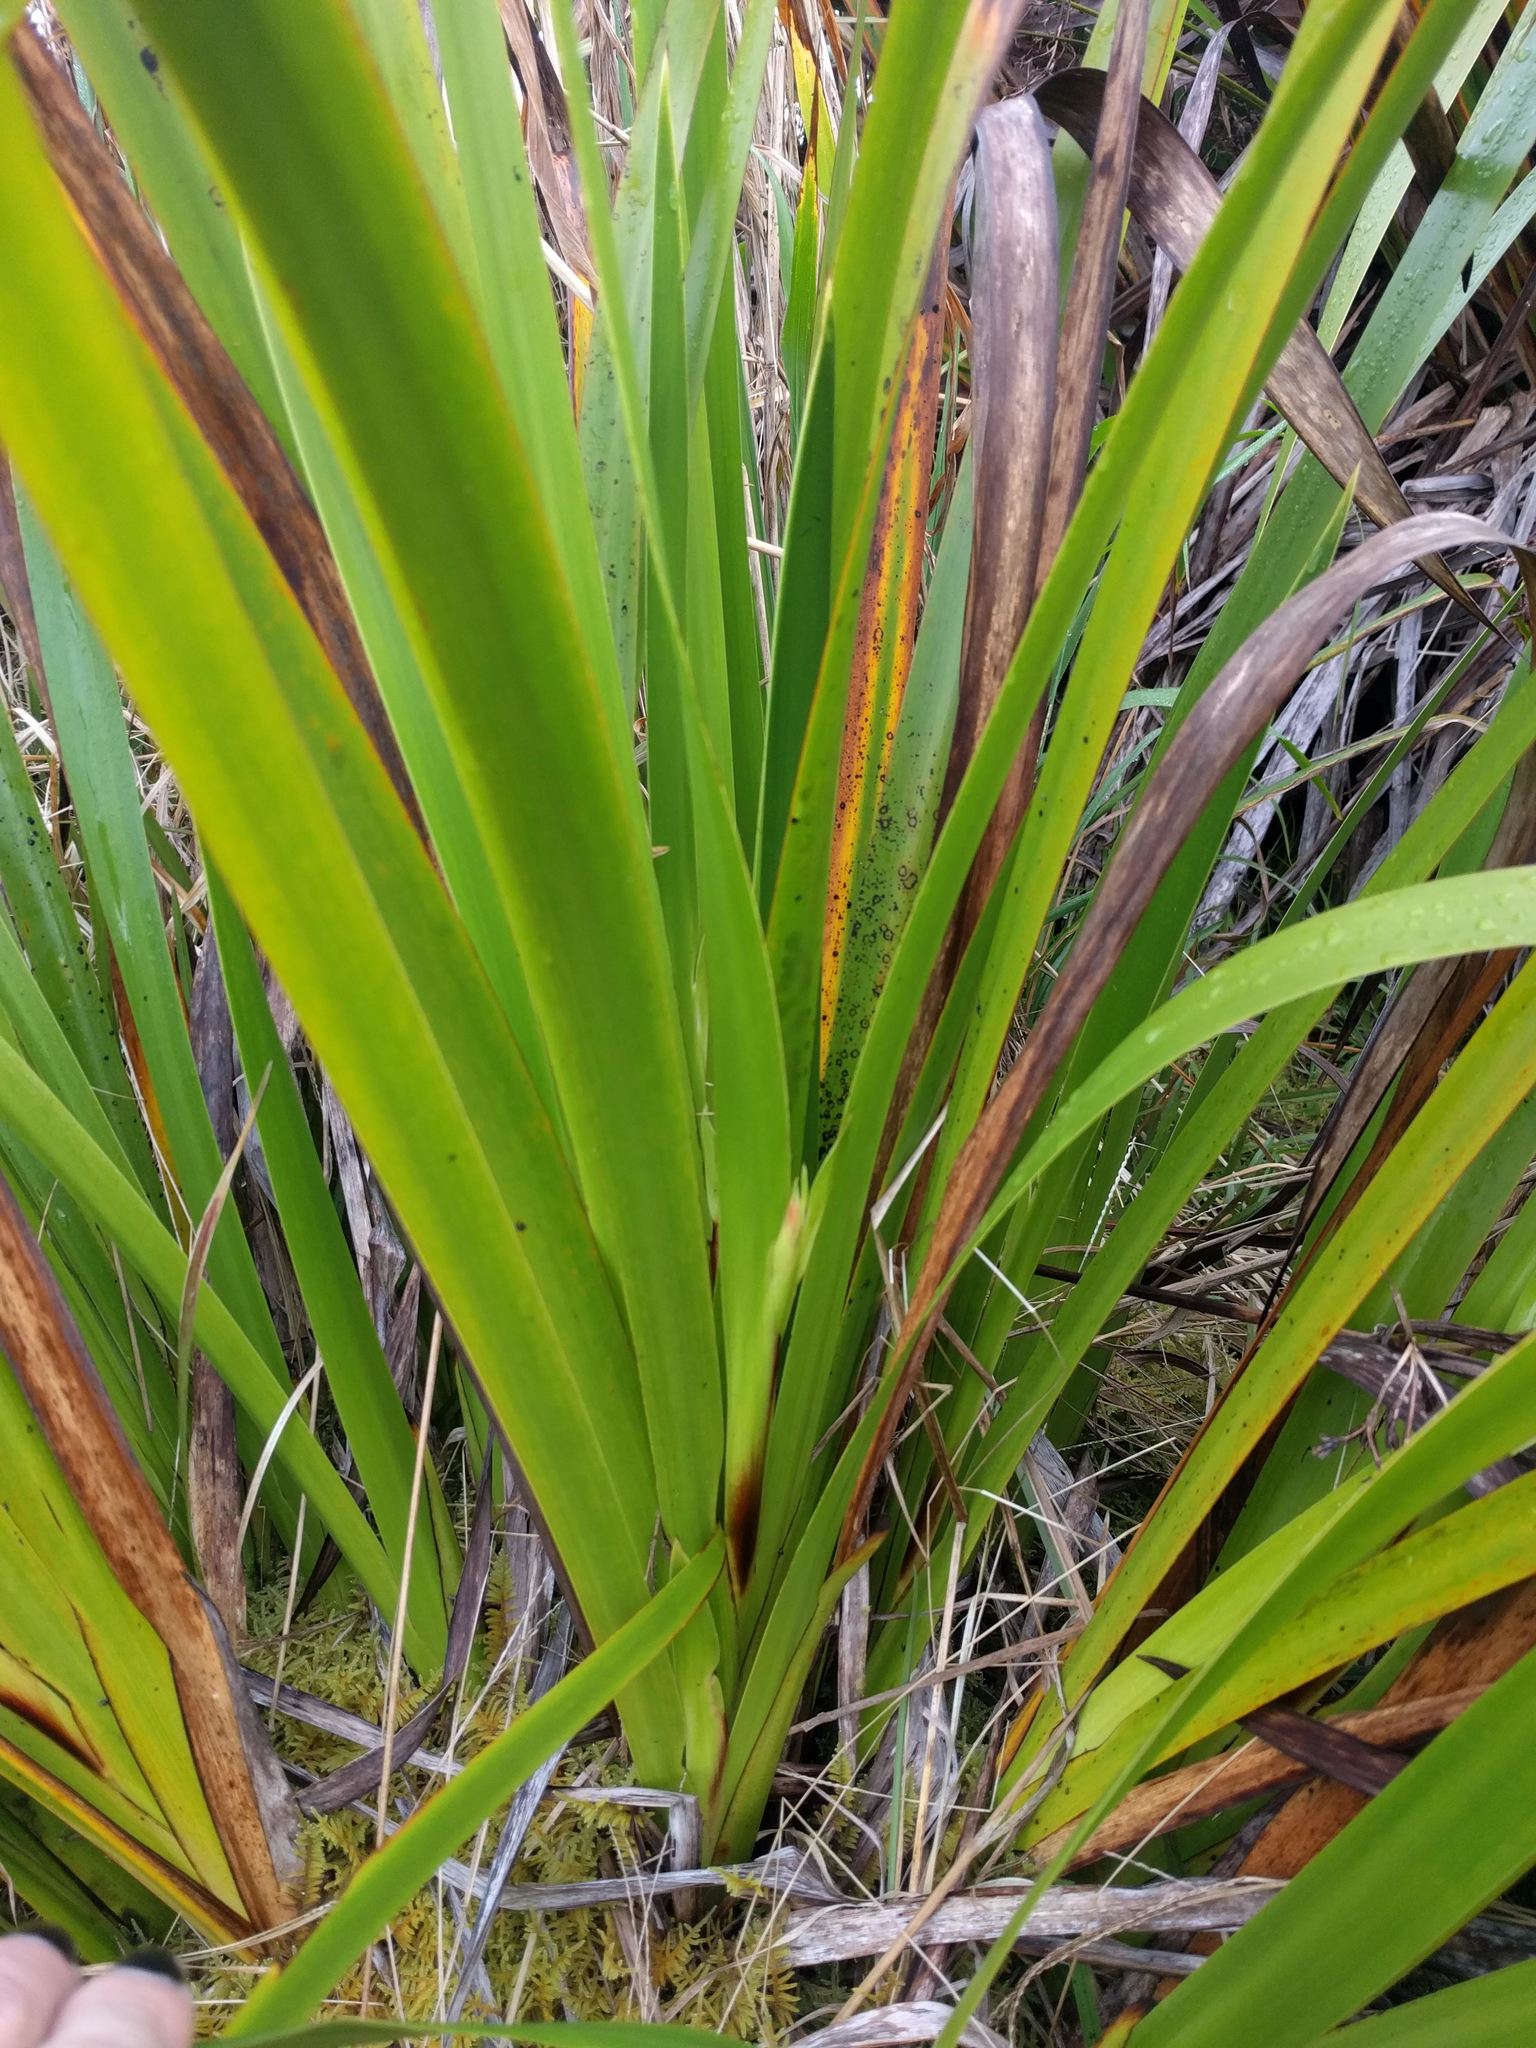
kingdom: Plantae
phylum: Tracheophyta
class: Liliopsida
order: Poales
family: Cyperaceae
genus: Machaerina
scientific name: Machaerina angustifolia
